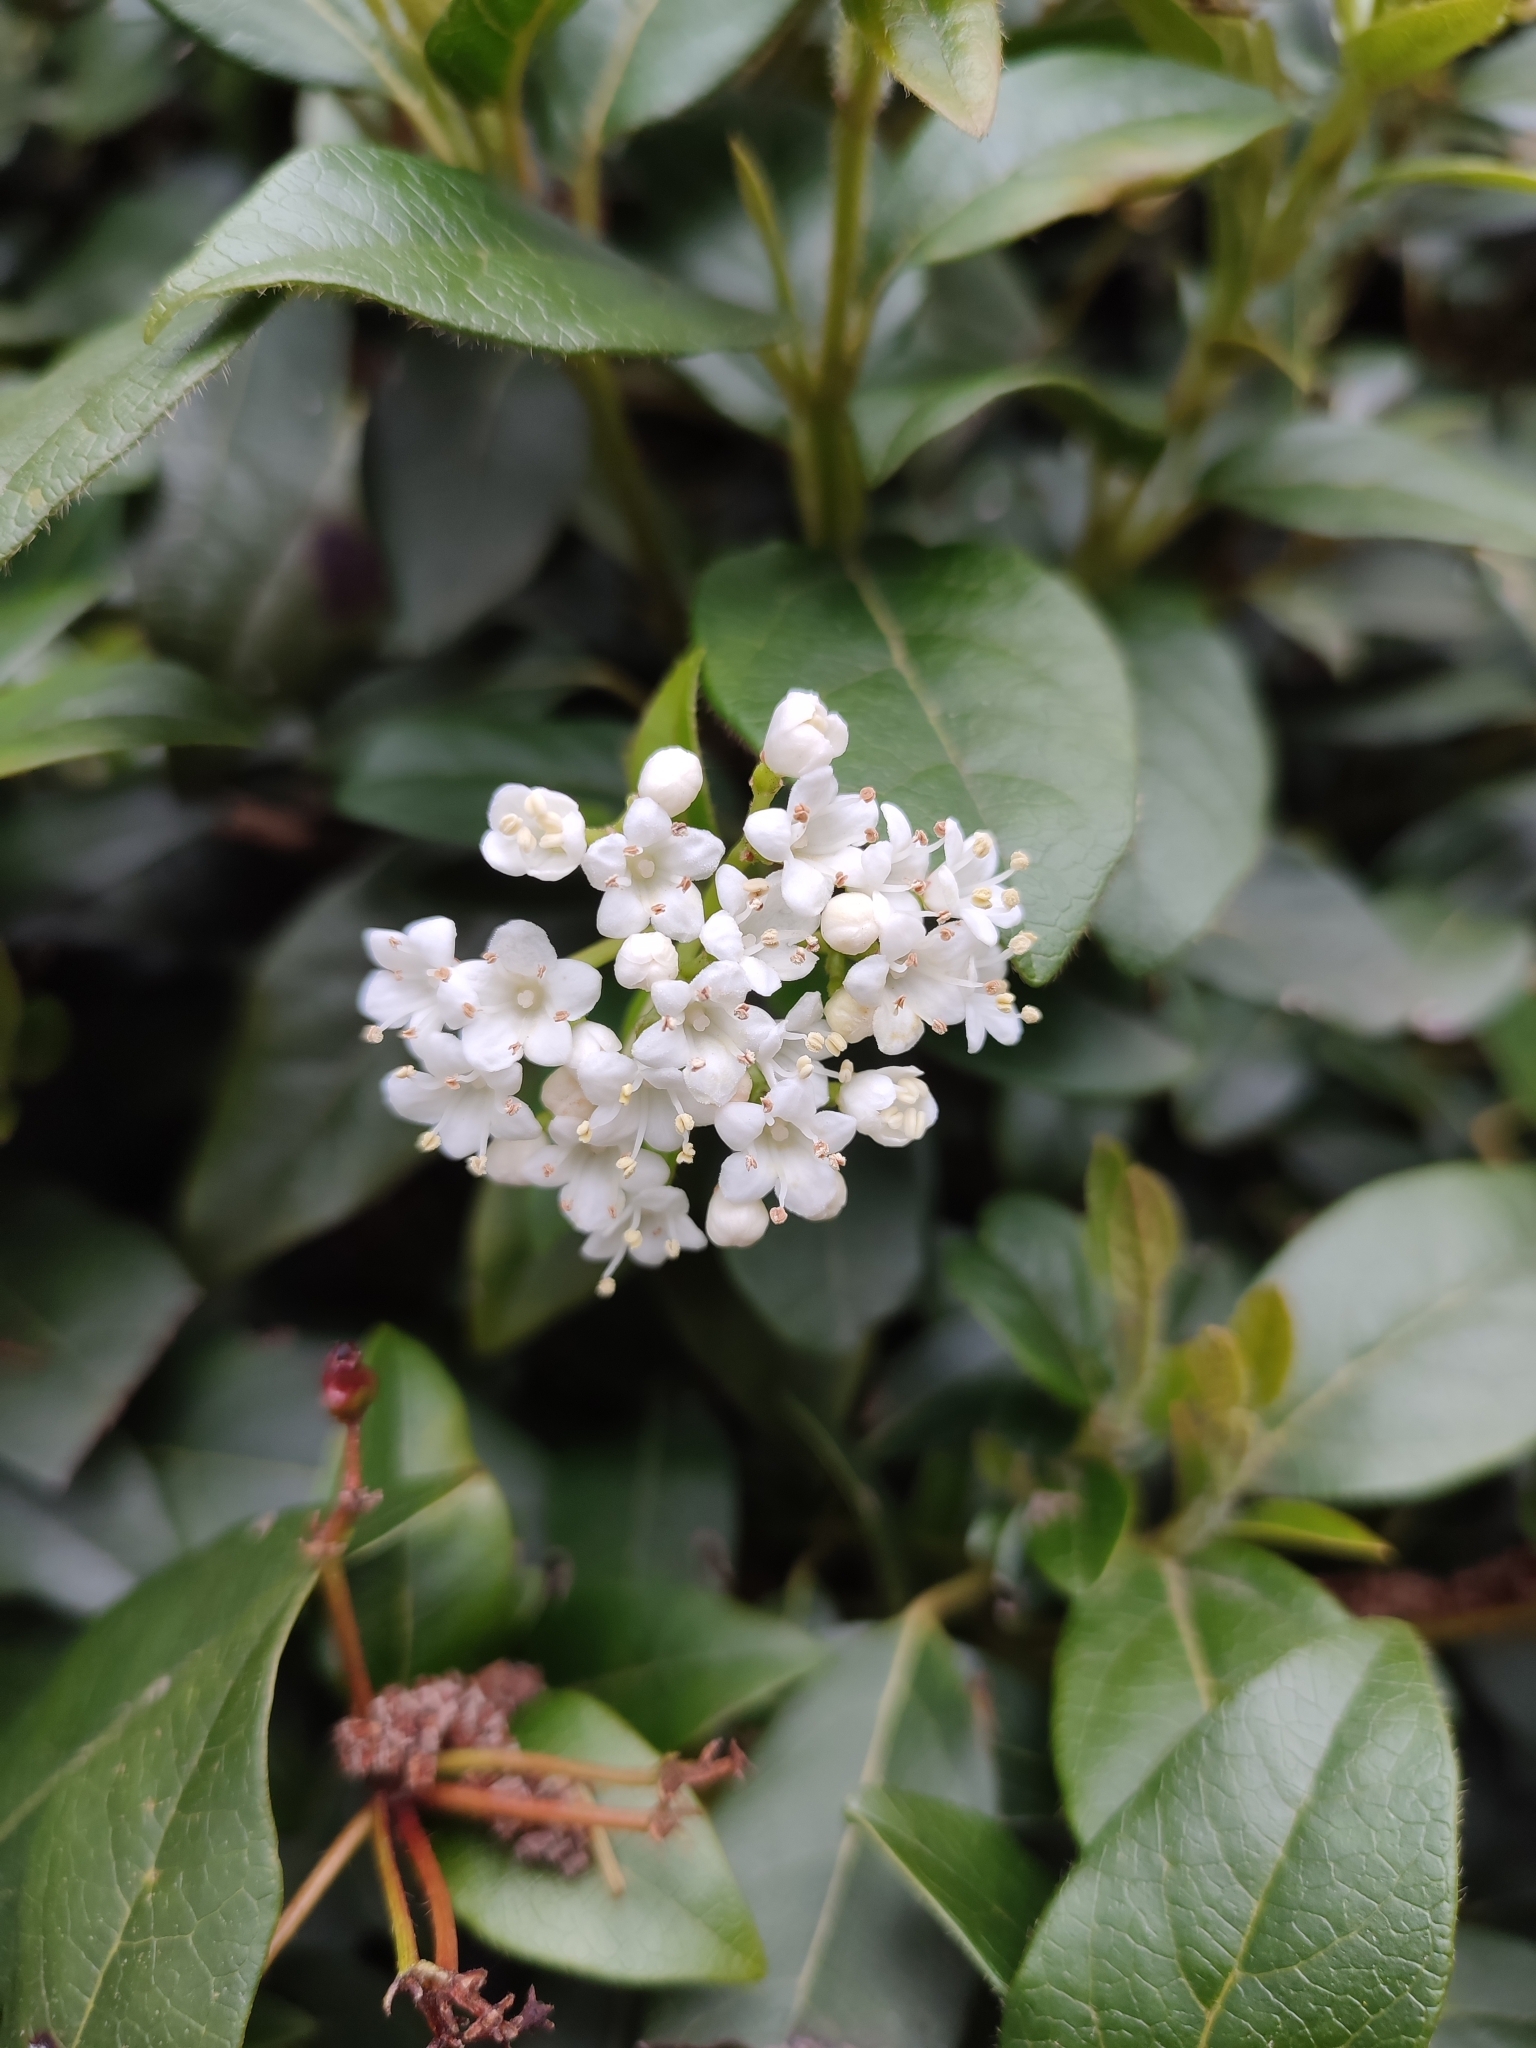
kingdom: Plantae
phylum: Tracheophyta
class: Magnoliopsida
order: Dipsacales
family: Viburnaceae
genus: Viburnum
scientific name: Viburnum tinus
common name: Laurustinus
